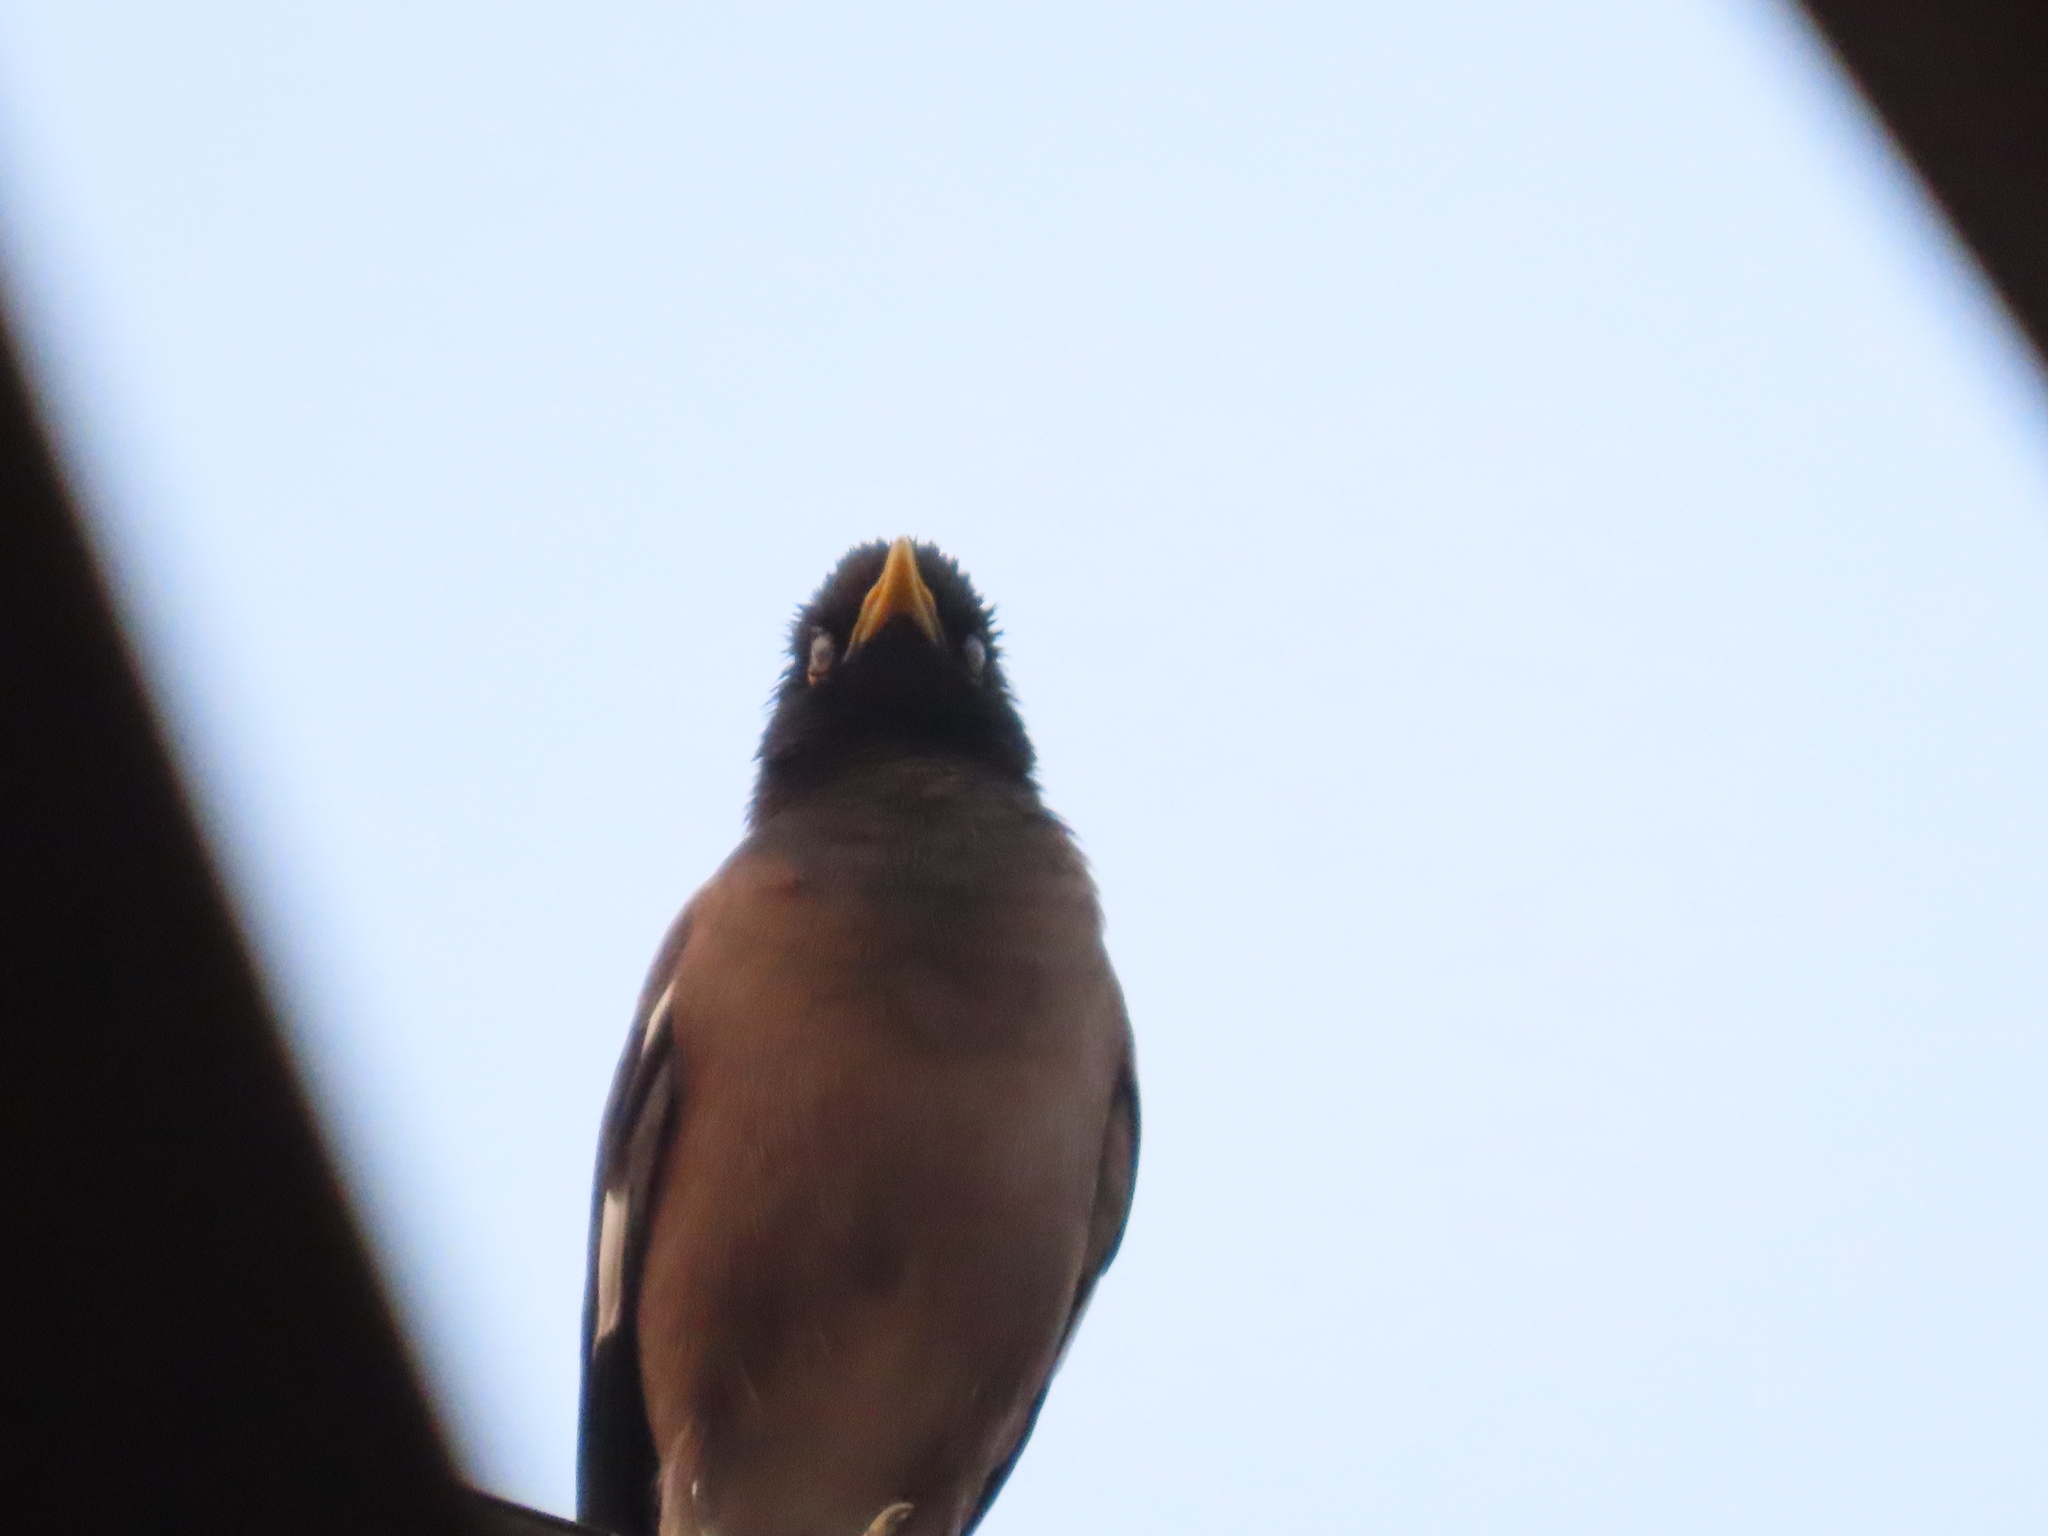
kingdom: Animalia
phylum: Chordata
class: Aves
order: Passeriformes
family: Sturnidae
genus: Acridotheres
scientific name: Acridotheres tristis
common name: Common myna
